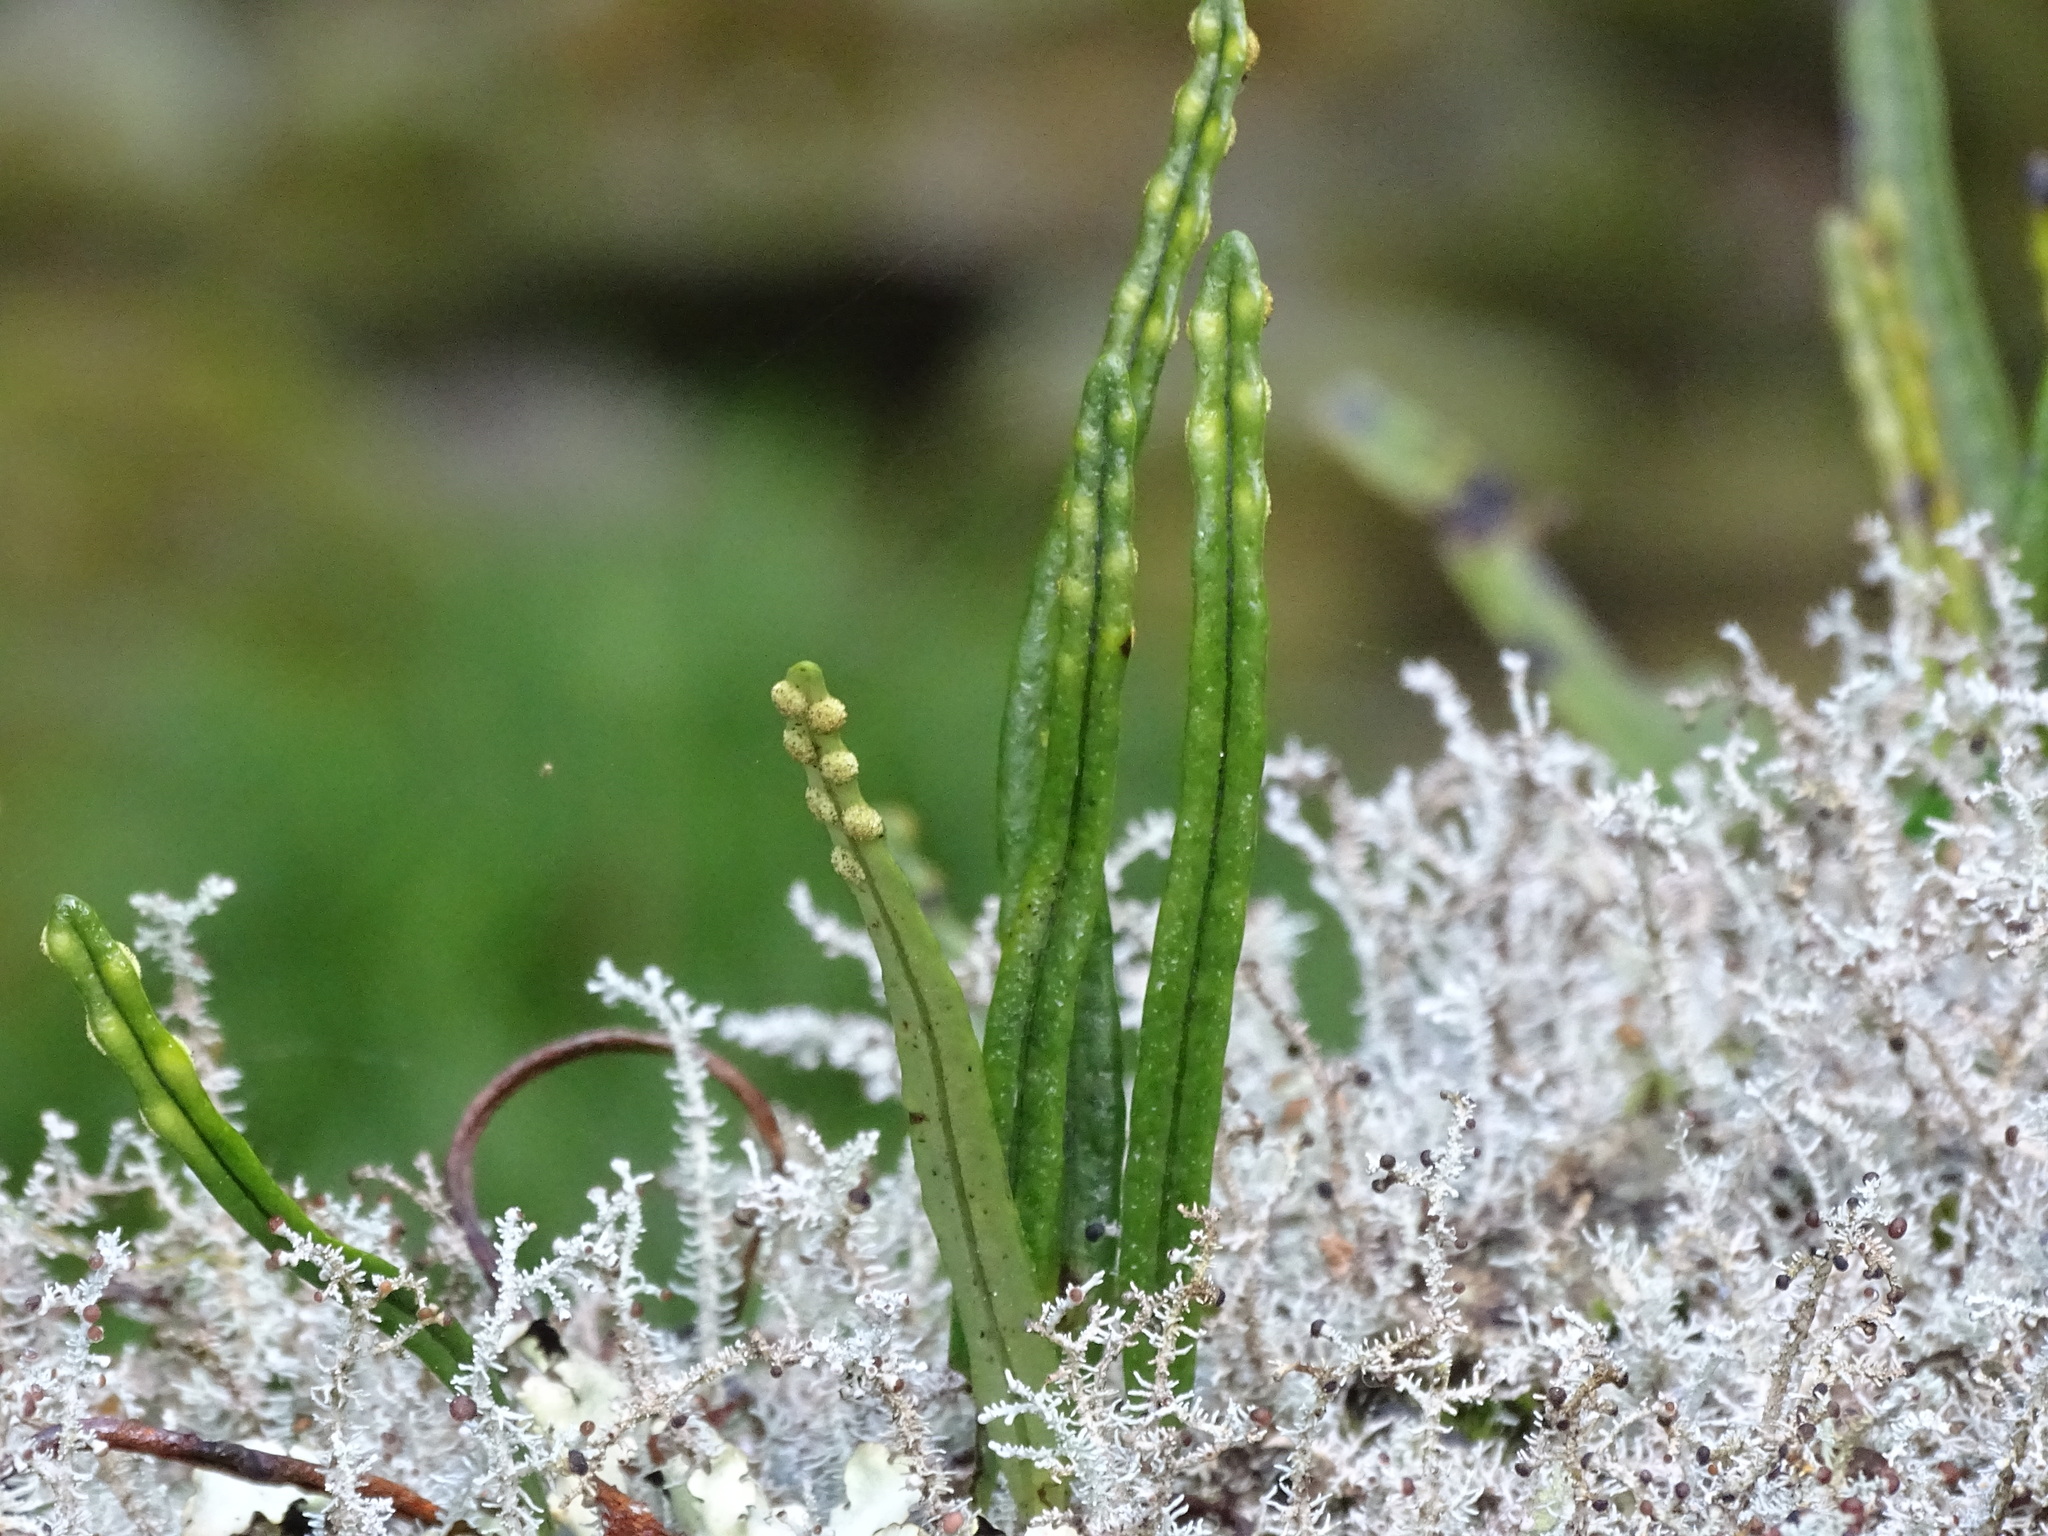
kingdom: Plantae
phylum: Tracheophyta
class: Polypodiopsida
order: Polypodiales
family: Polypodiaceae
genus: Lepisorus
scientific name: Lepisorus monilisorus
